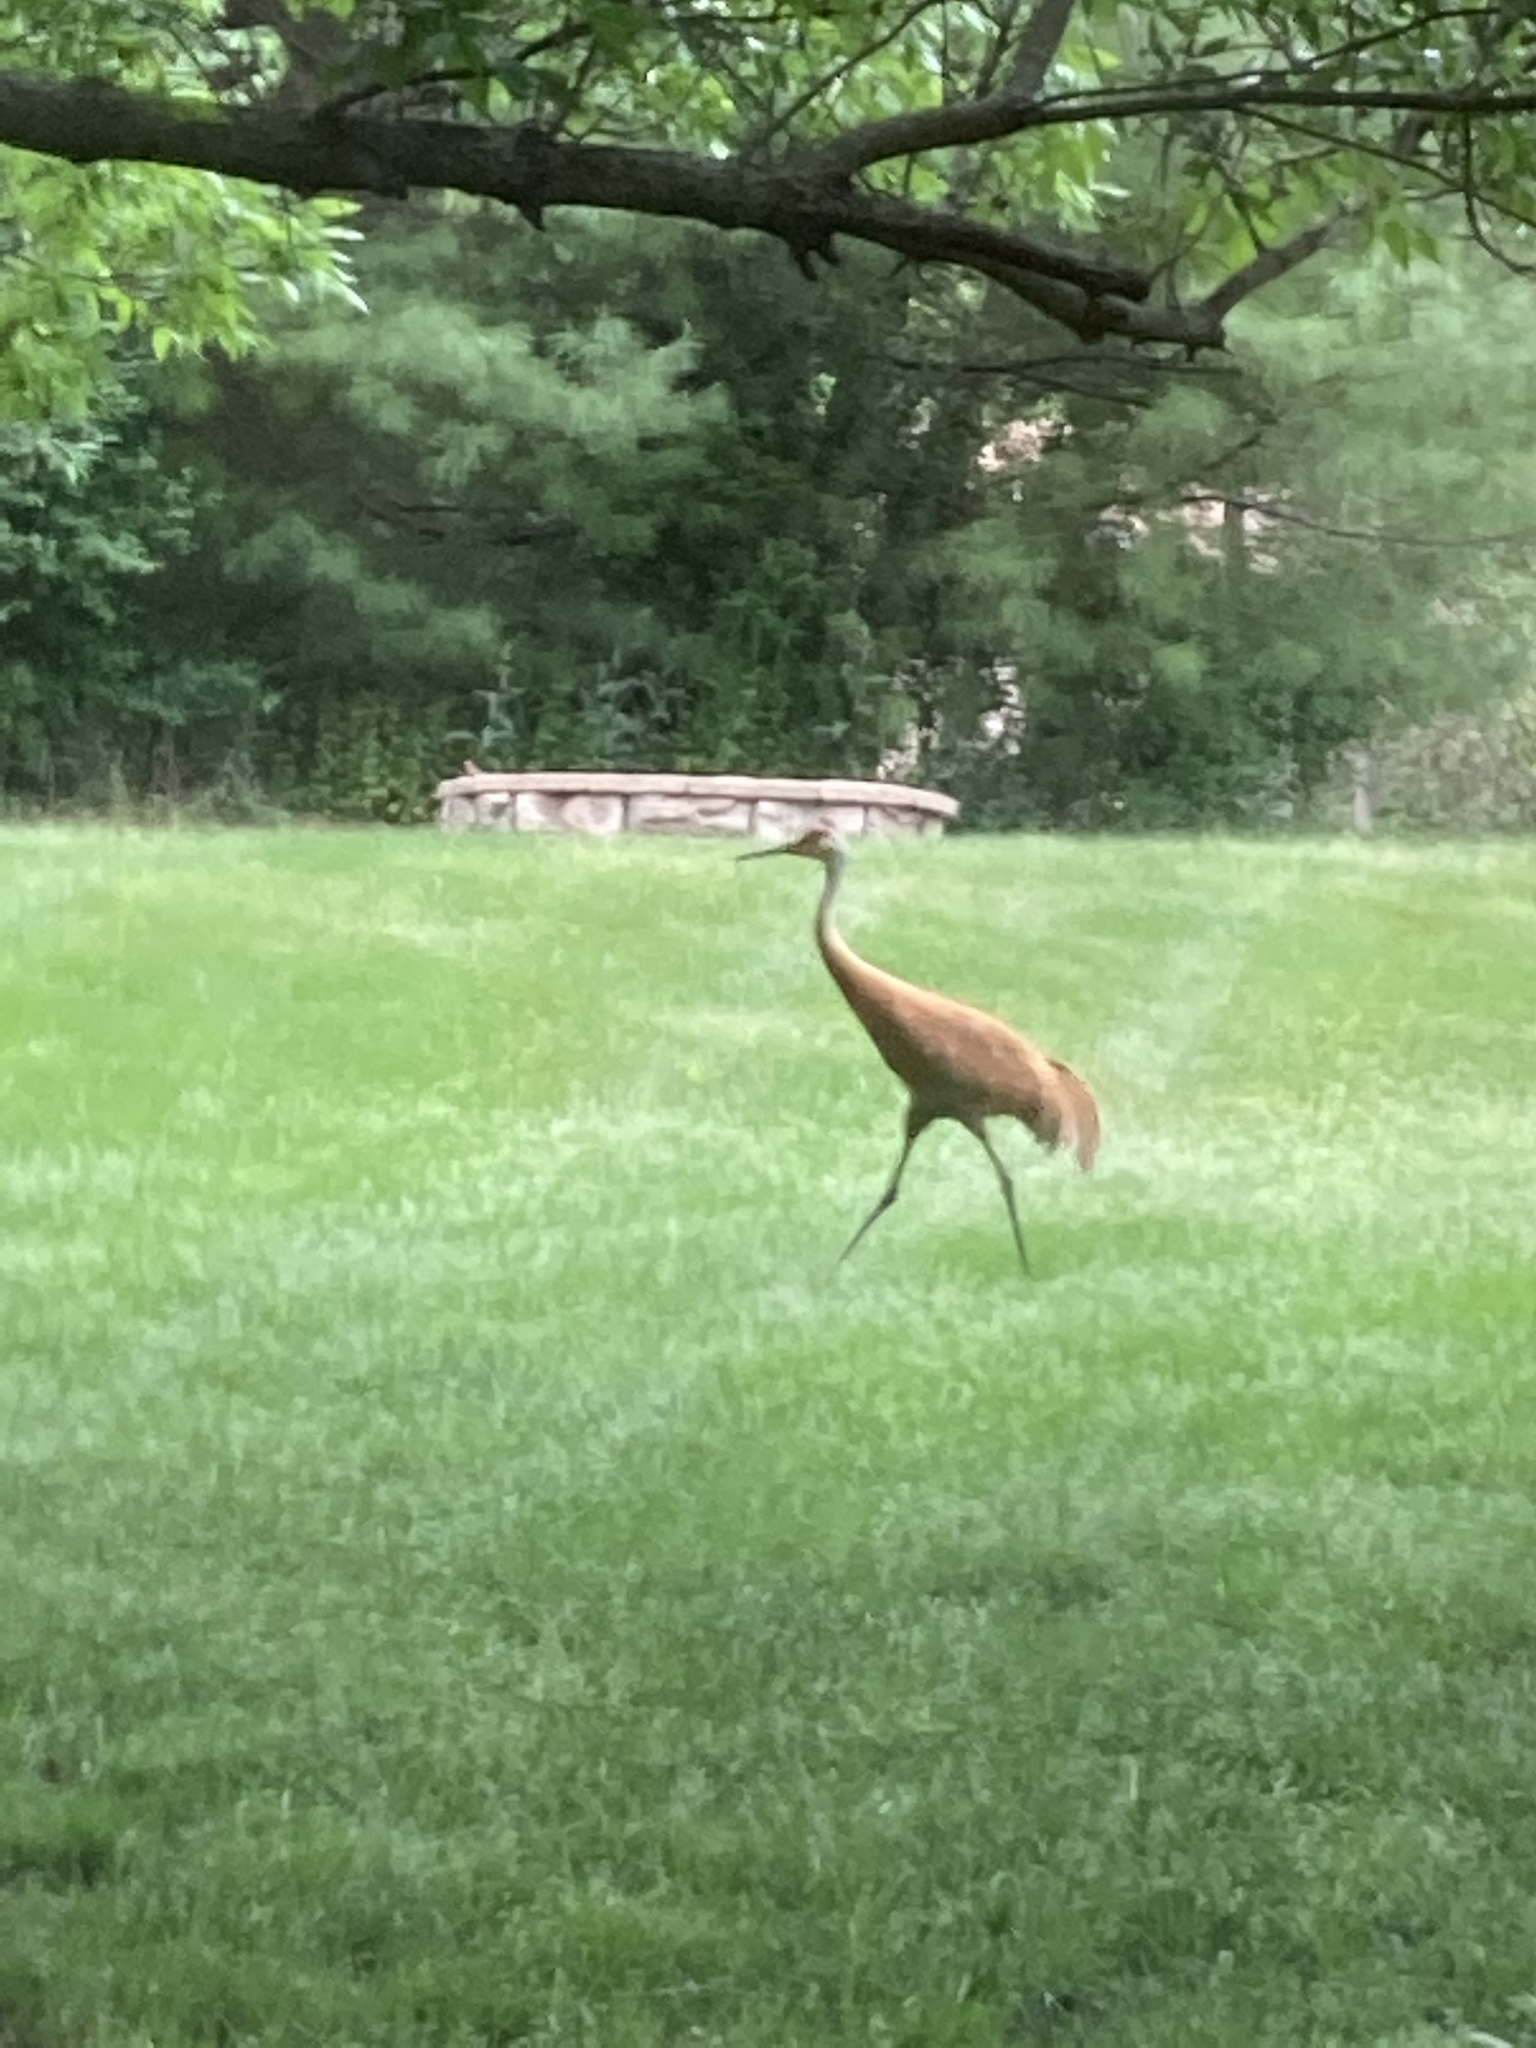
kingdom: Animalia
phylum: Chordata
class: Aves
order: Gruiformes
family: Gruidae
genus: Grus
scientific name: Grus canadensis
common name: Sandhill crane
